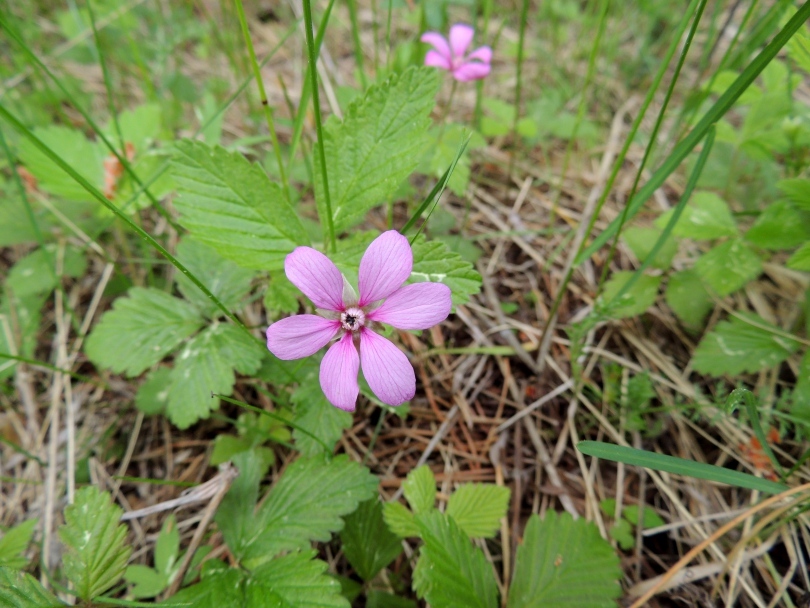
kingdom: Plantae
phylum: Tracheophyta
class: Magnoliopsida
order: Rosales
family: Rosaceae
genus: Rubus
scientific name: Rubus arcticus
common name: Arctic bramble
